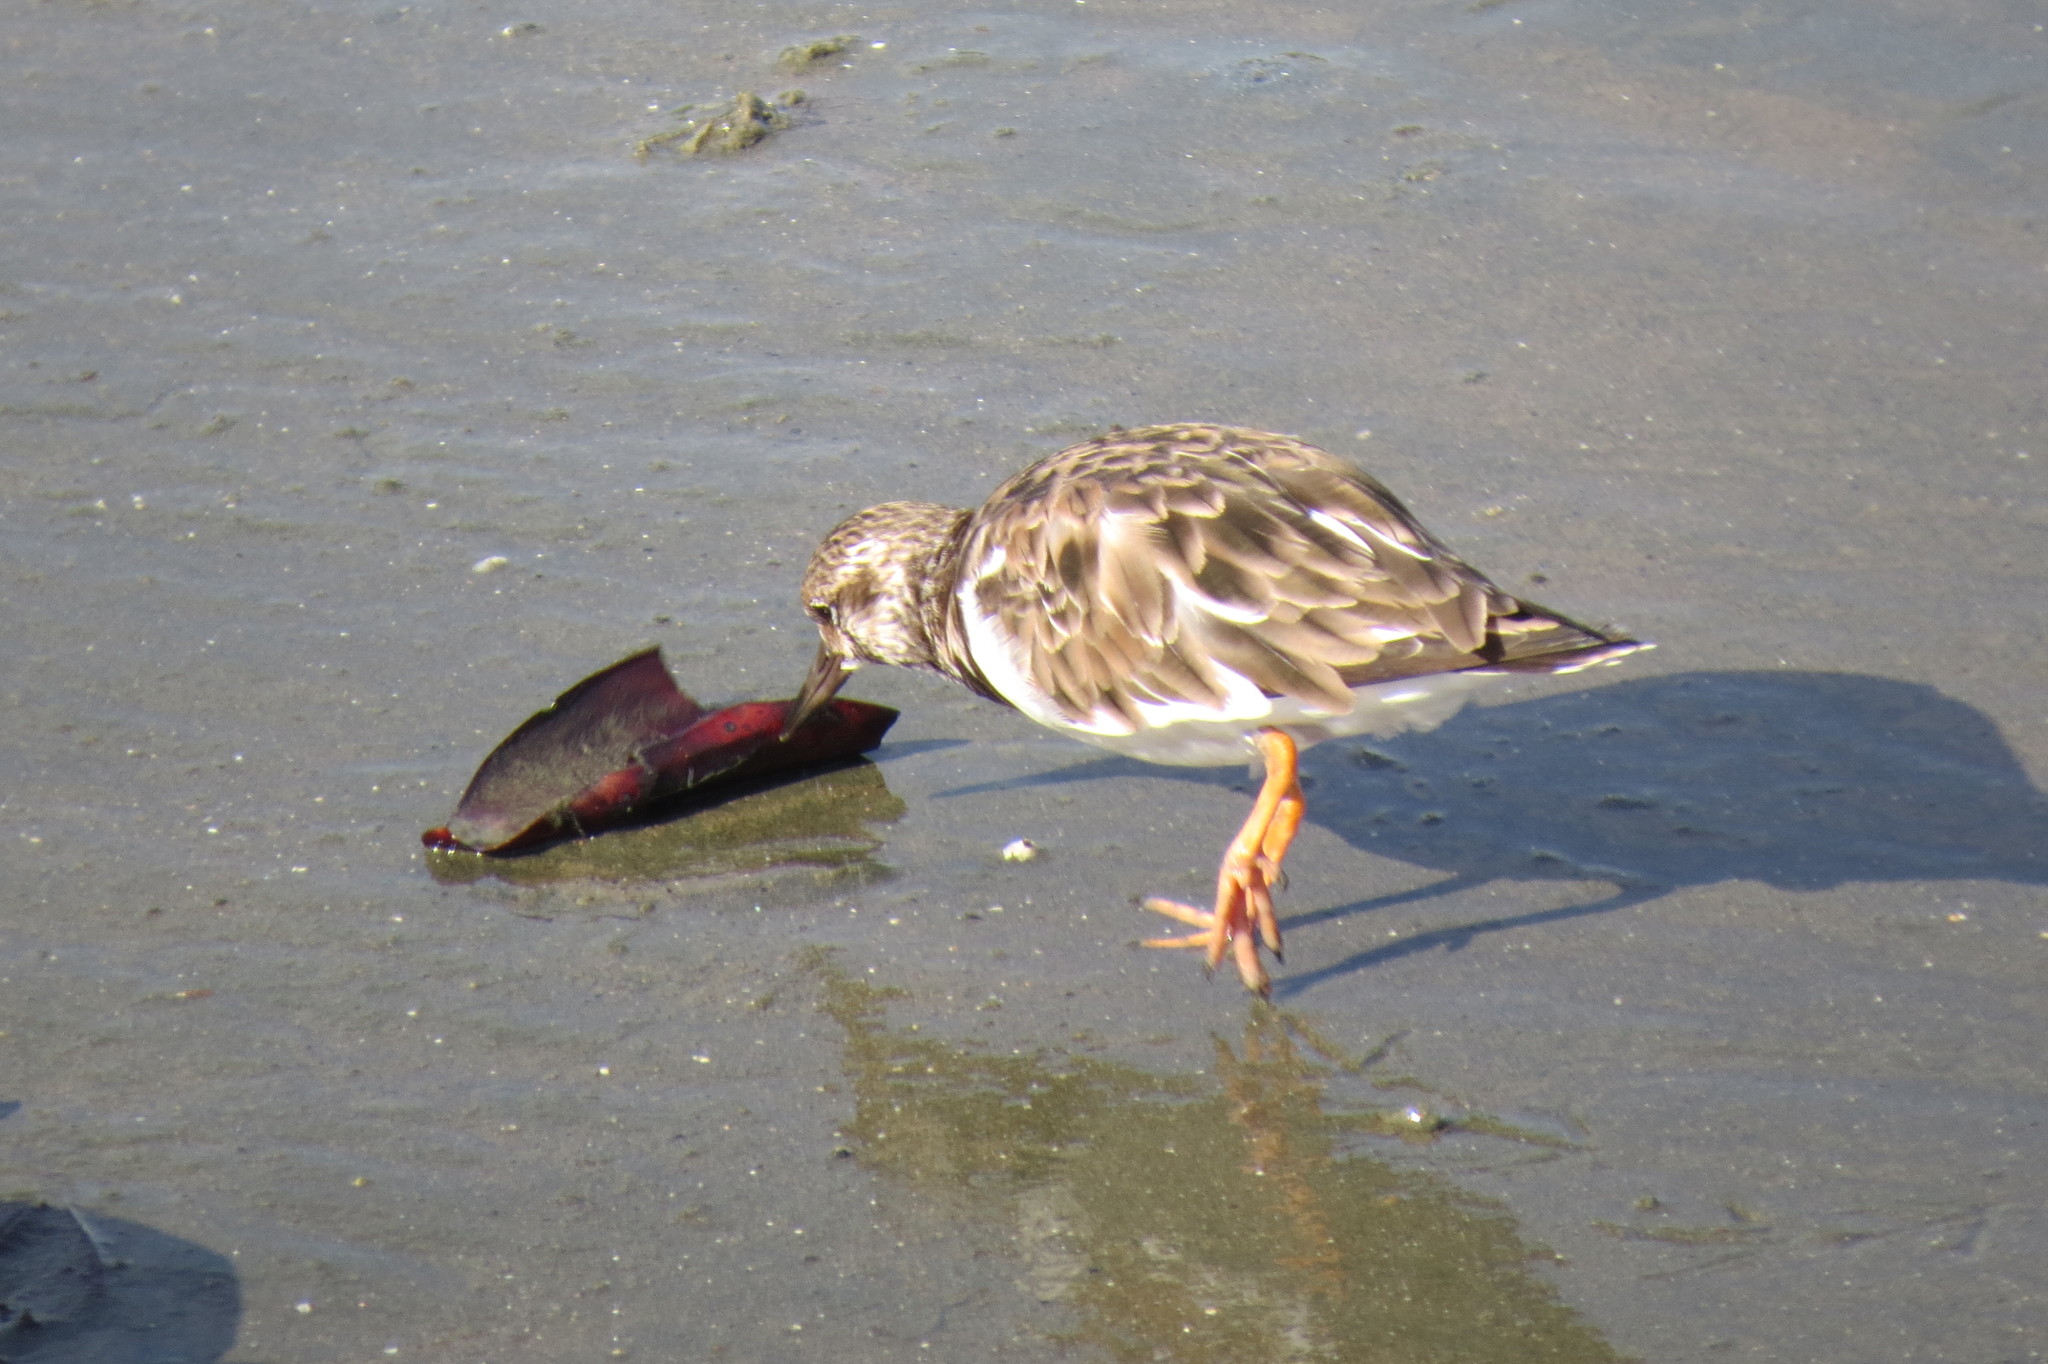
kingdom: Animalia
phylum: Chordata
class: Aves
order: Charadriiformes
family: Scolopacidae
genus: Arenaria
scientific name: Arenaria interpres
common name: Ruddy turnstone
